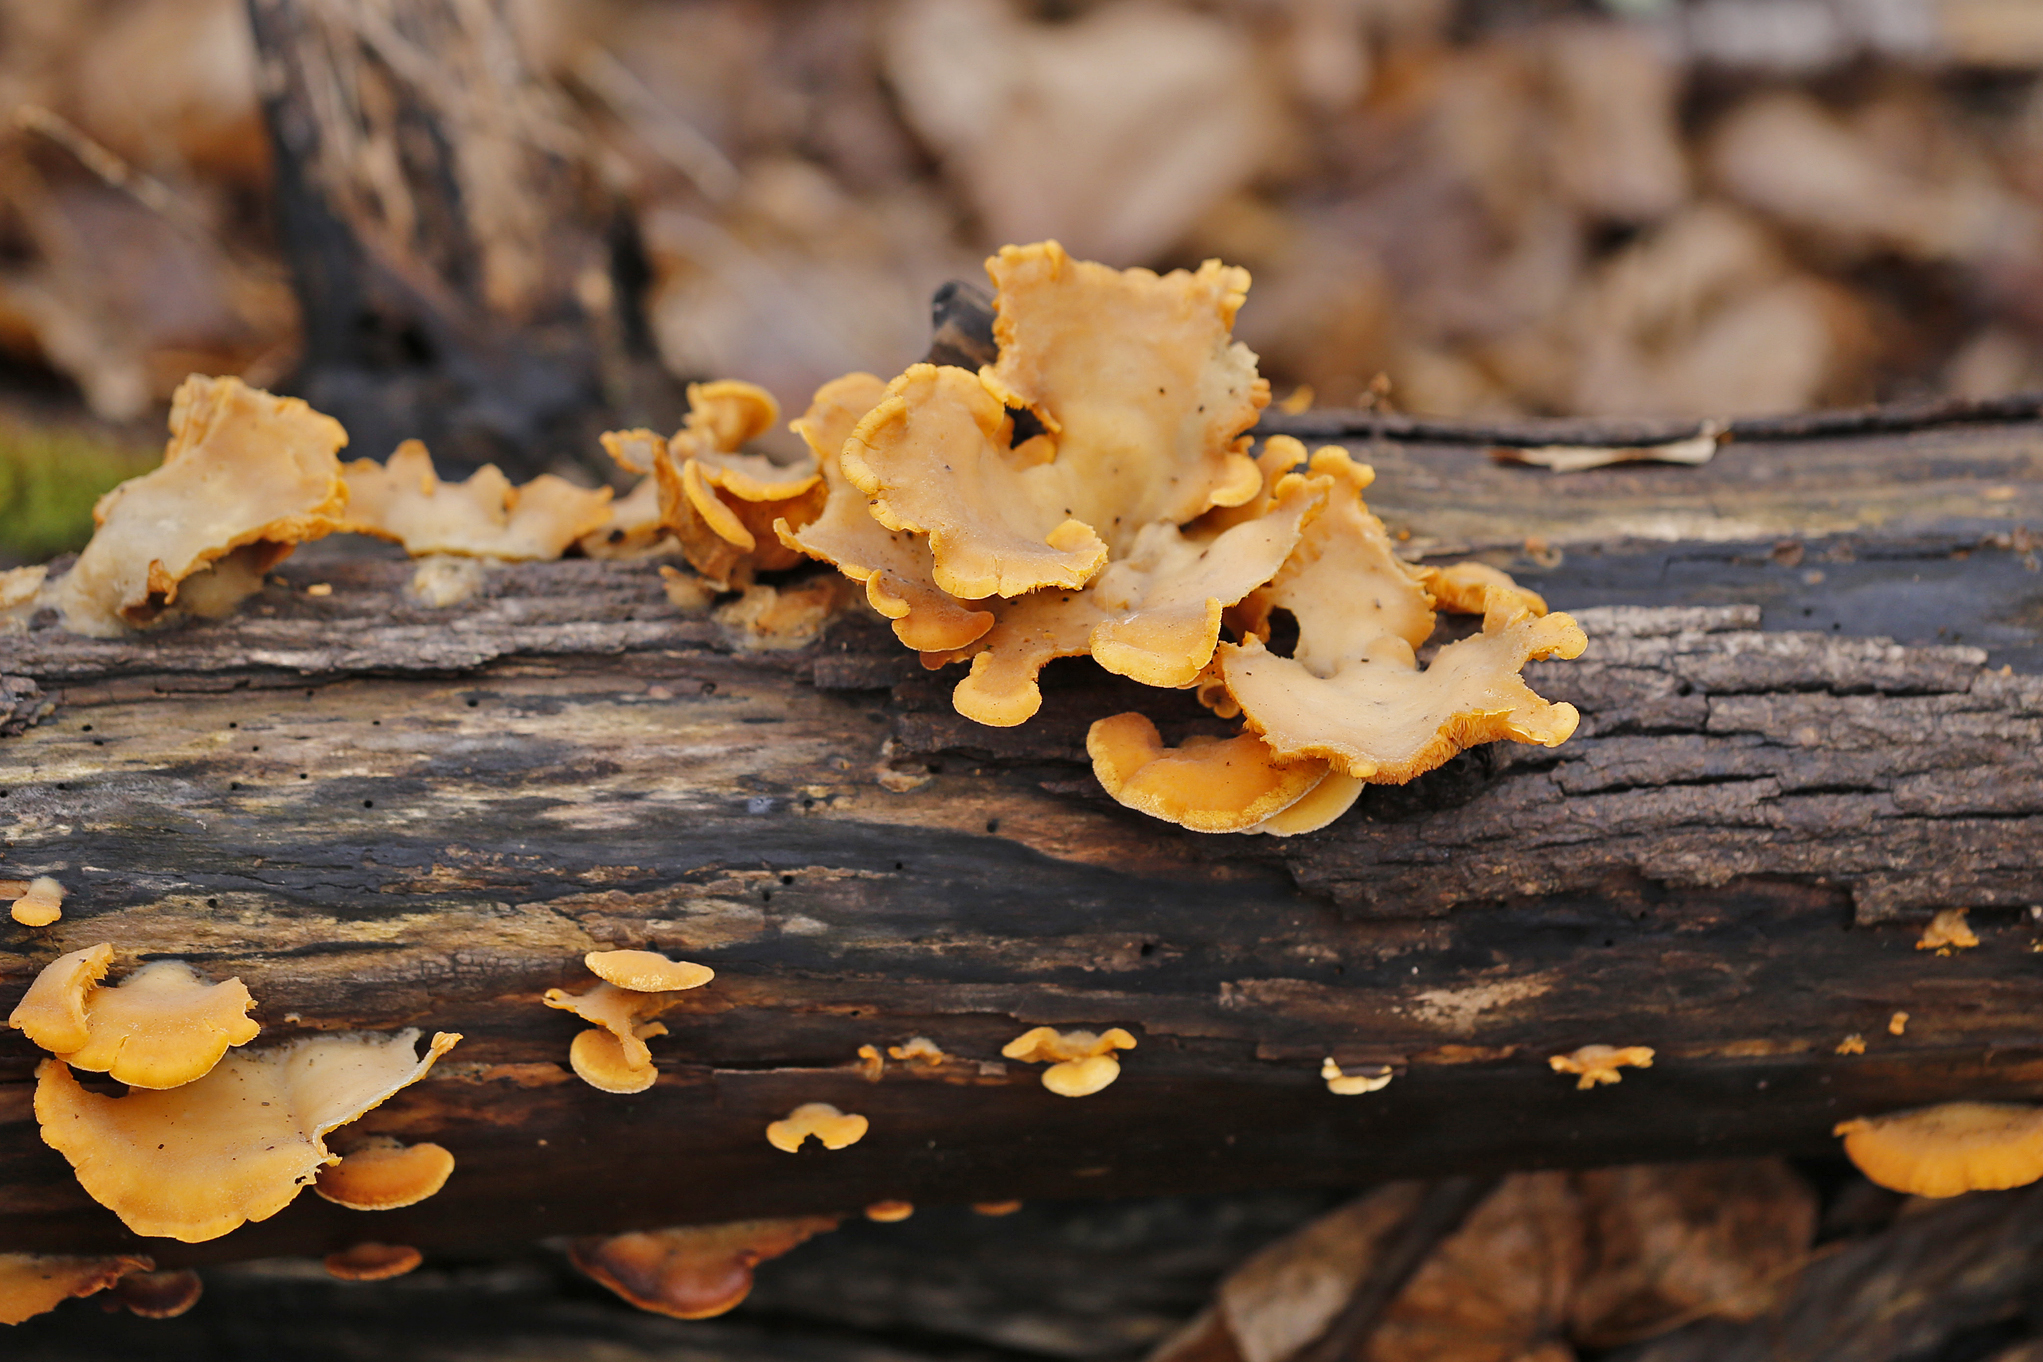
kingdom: Fungi
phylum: Basidiomycota
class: Agaricomycetes
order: Agaricales
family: Phyllotopsidaceae
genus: Phyllotopsis
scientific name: Phyllotopsis nidulans
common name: Orange mock oyster
